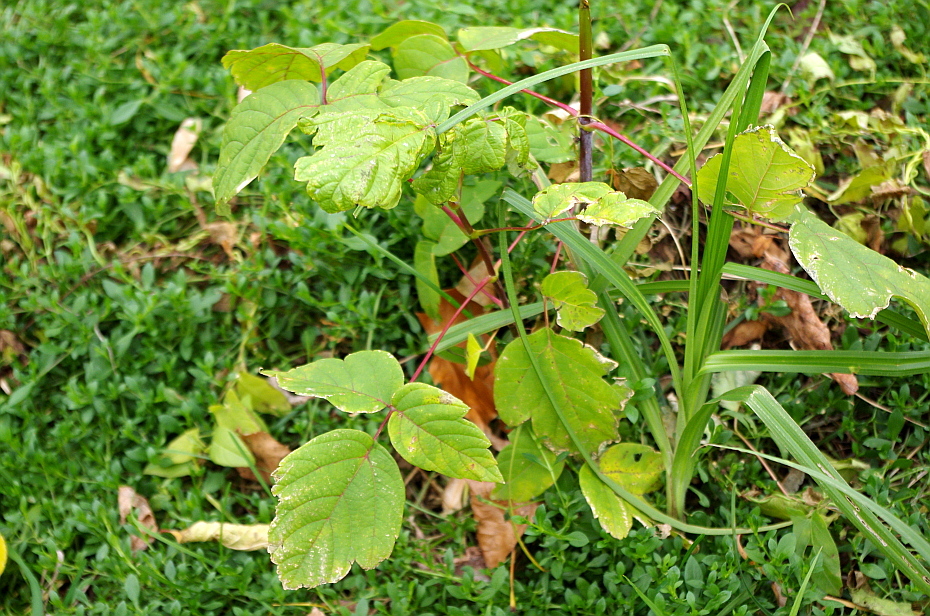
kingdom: Plantae
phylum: Tracheophyta
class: Magnoliopsida
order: Sapindales
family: Sapindaceae
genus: Acer
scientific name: Acer negundo
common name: Ashleaf maple
